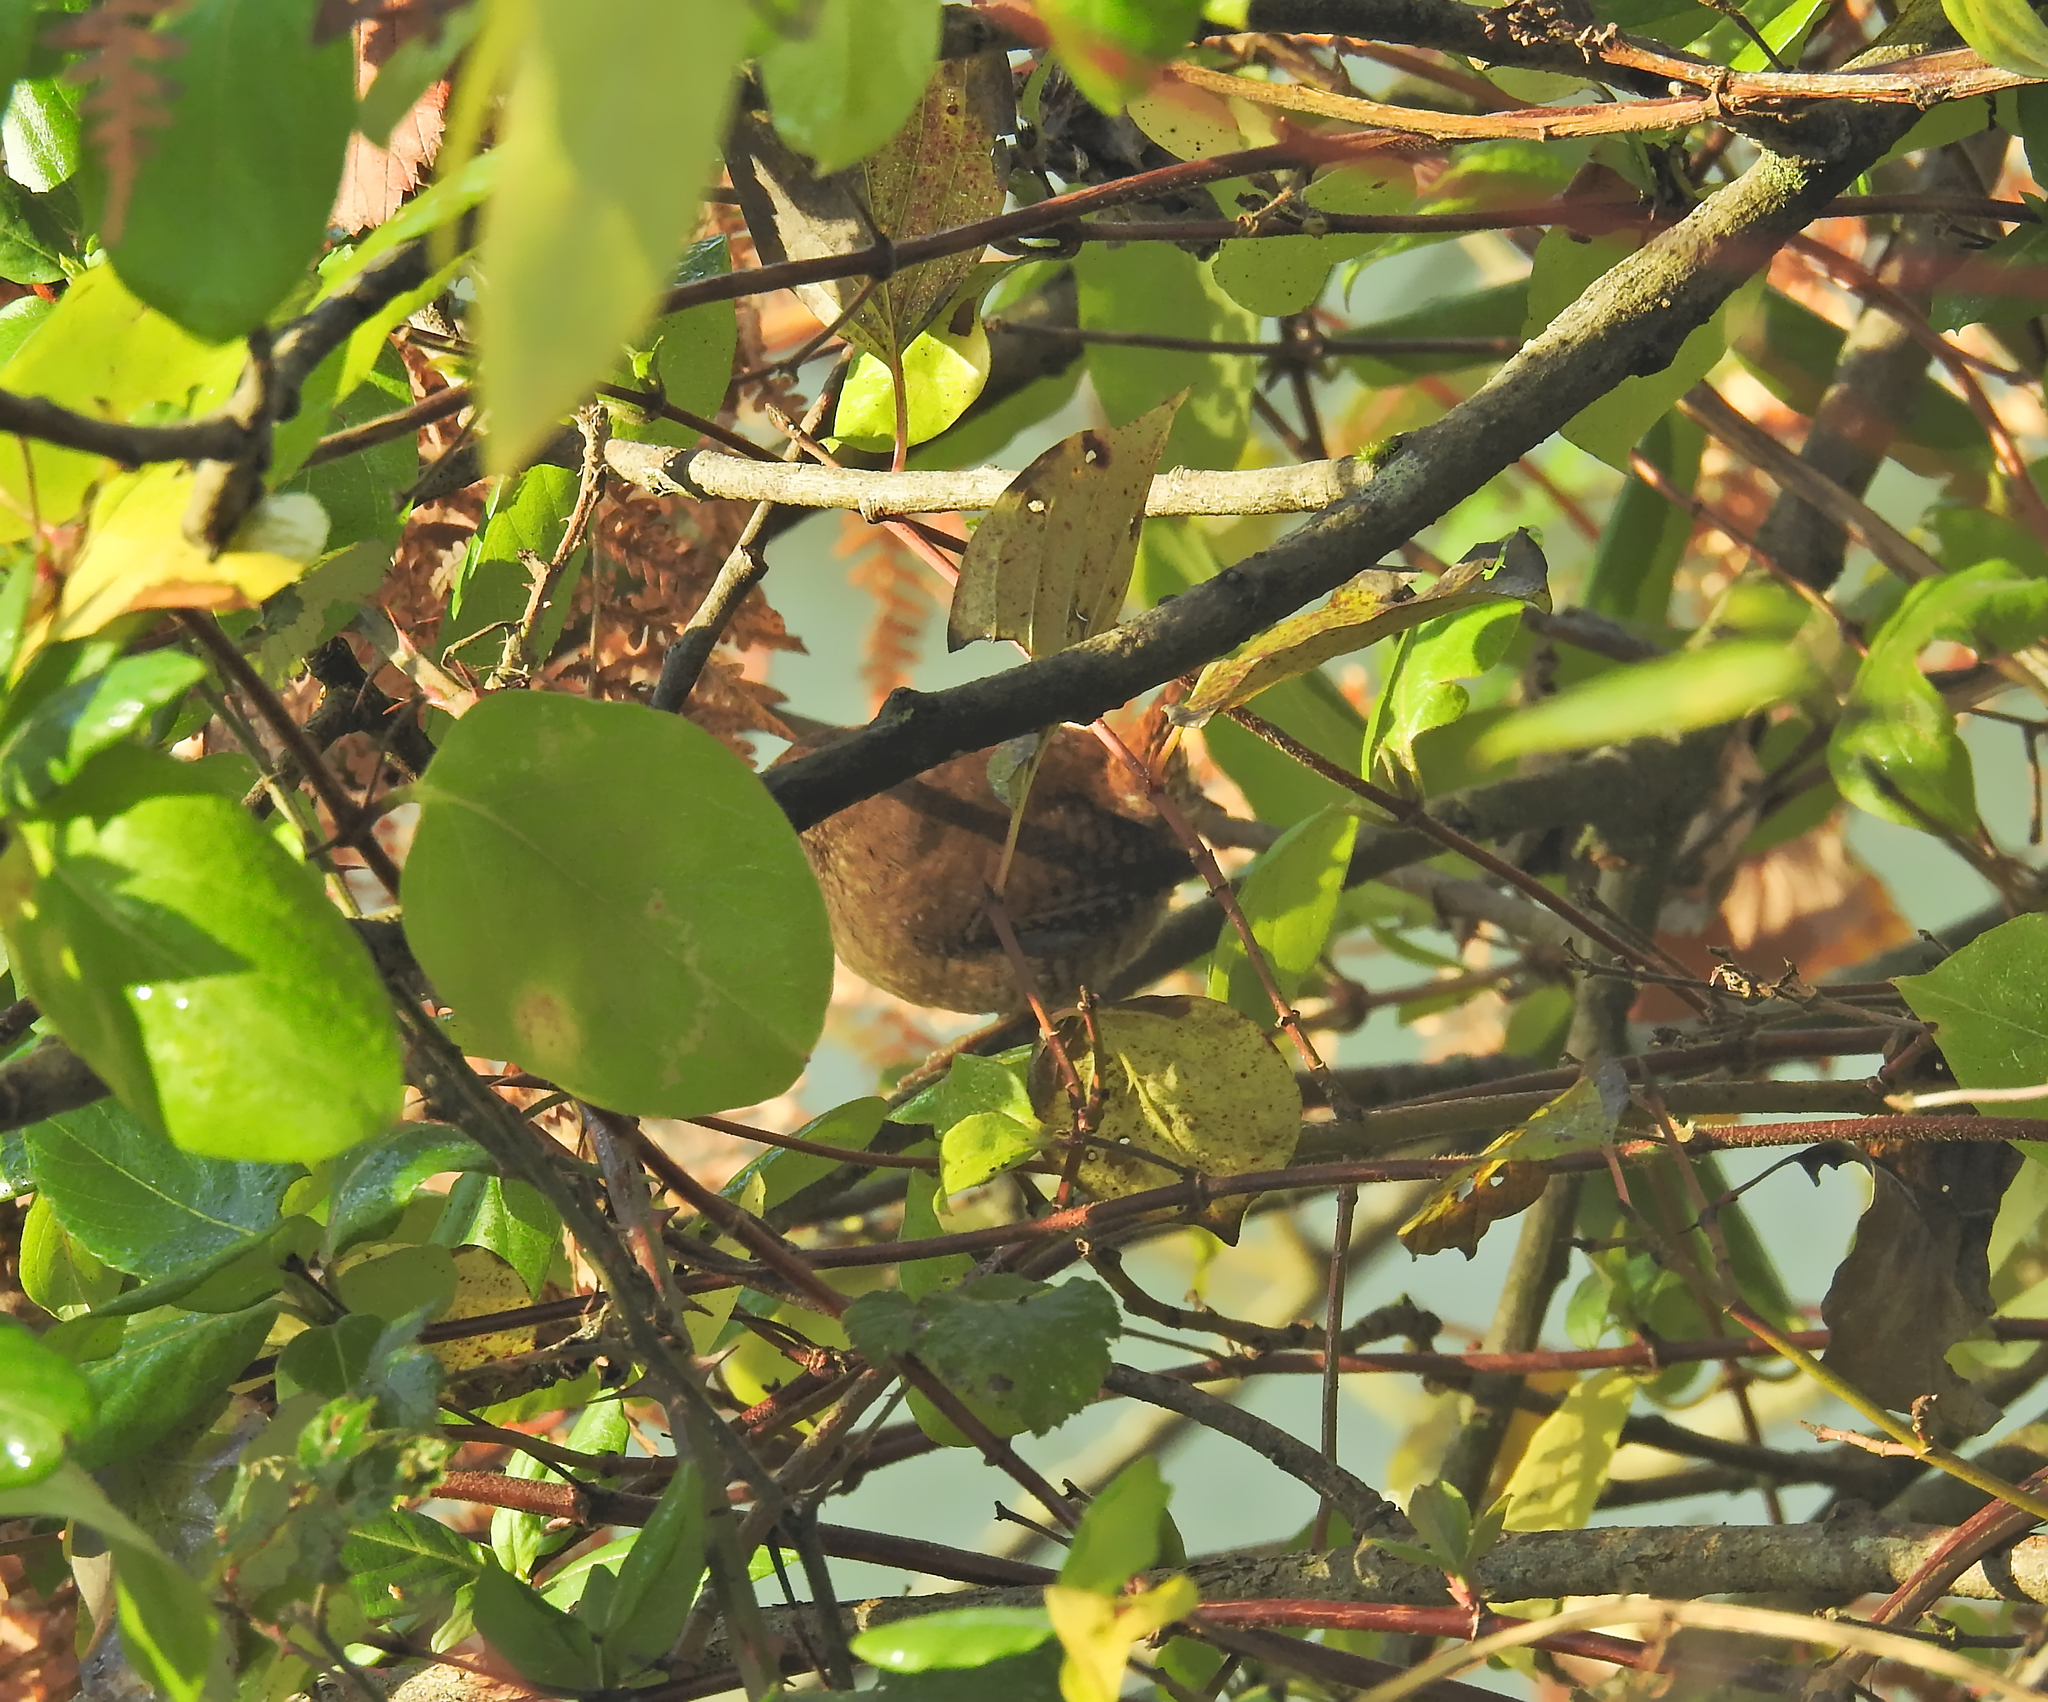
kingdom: Animalia
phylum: Chordata
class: Aves
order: Passeriformes
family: Troglodytidae
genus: Troglodytes
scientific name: Troglodytes troglodytes
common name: Eurasian wren
